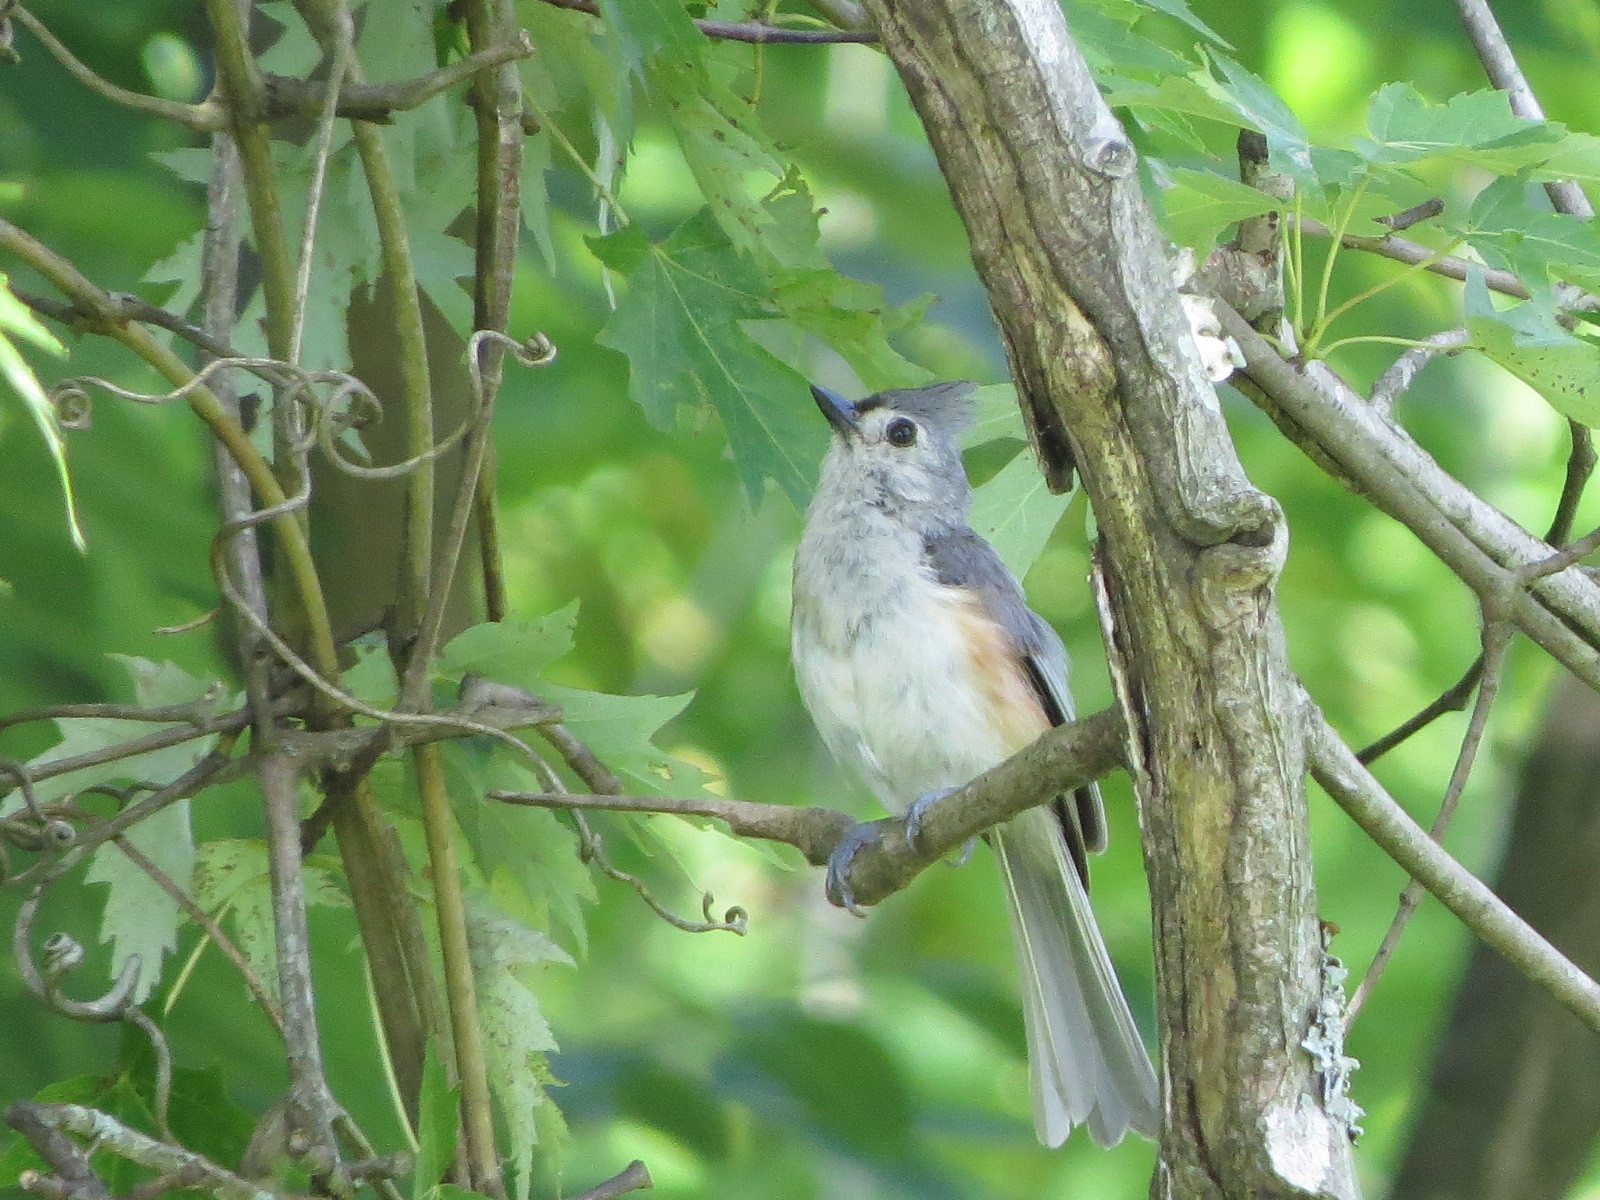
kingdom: Animalia
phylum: Chordata
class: Aves
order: Passeriformes
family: Paridae
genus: Baeolophus
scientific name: Baeolophus bicolor
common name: Tufted titmouse
